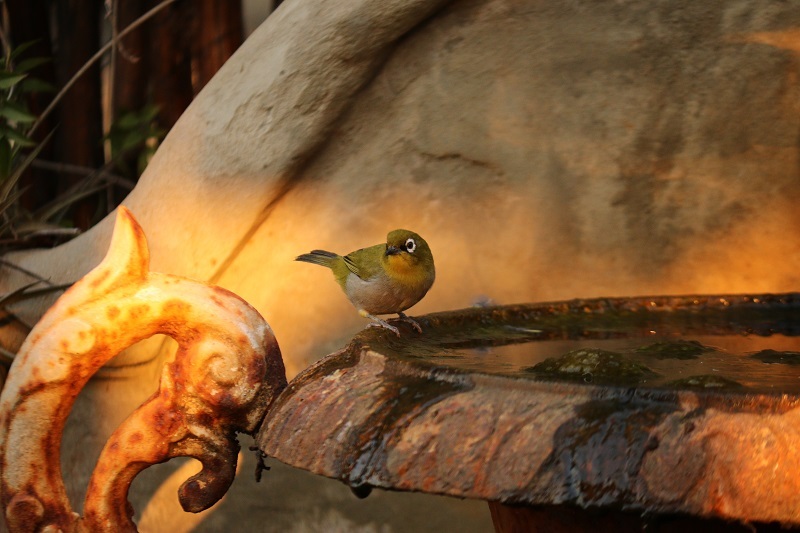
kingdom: Animalia
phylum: Chordata
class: Aves
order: Passeriformes
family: Zosteropidae
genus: Zosterops
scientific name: Zosterops virens
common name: Cape white-eye
